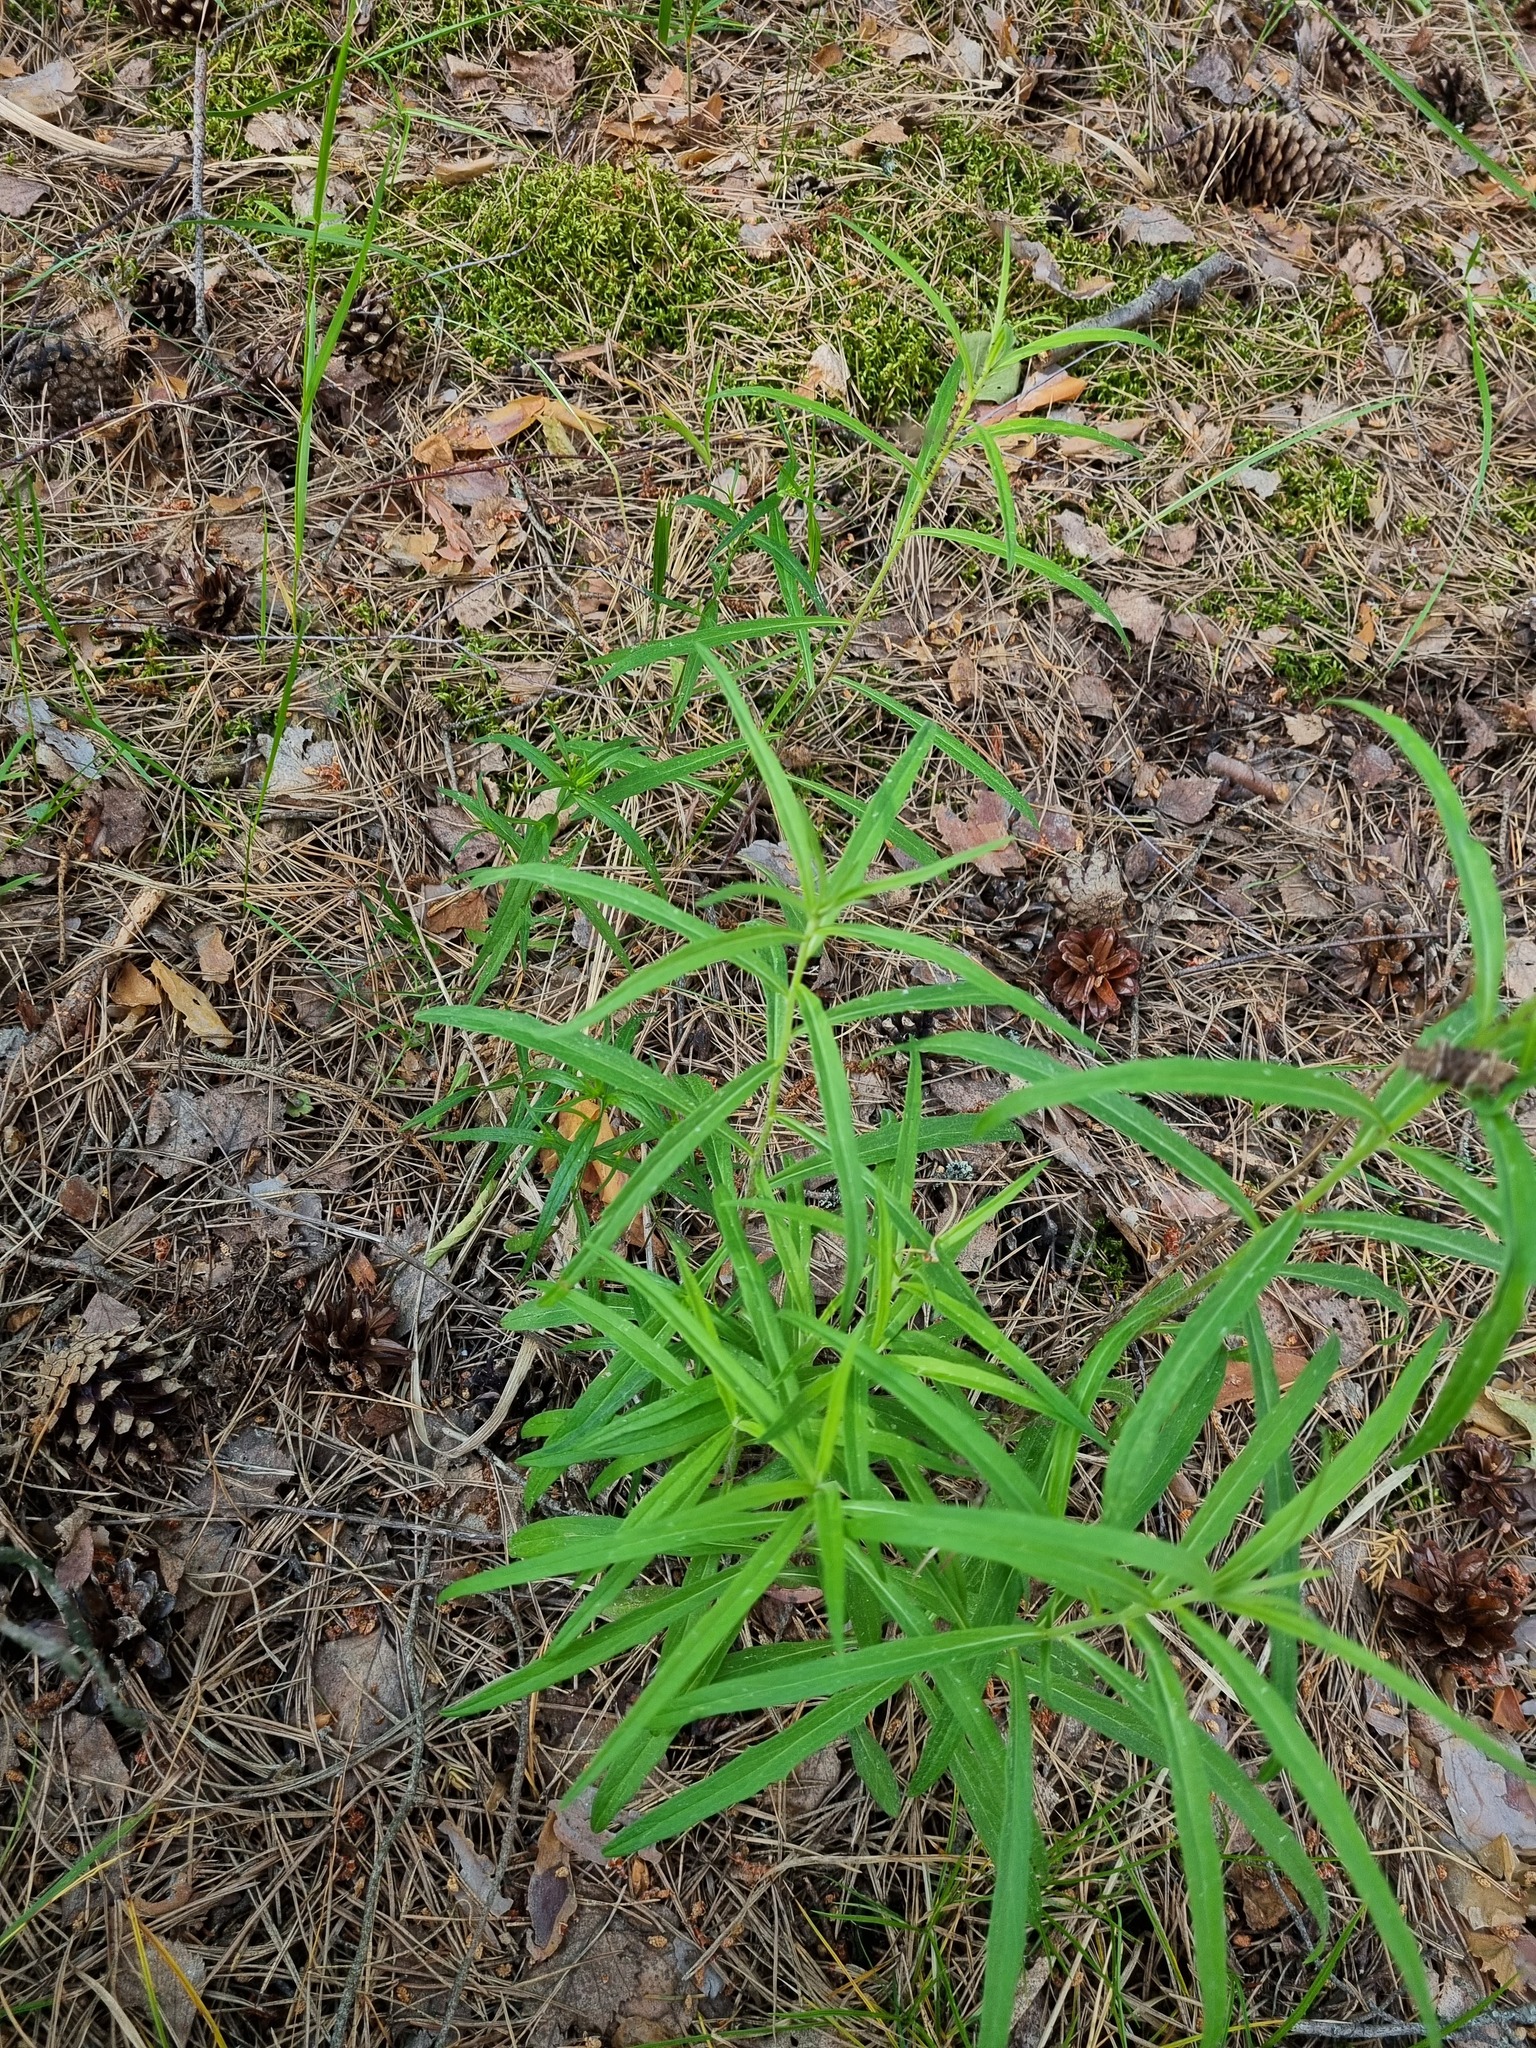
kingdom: Plantae
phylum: Tracheophyta
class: Magnoliopsida
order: Asterales
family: Asteraceae
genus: Hieracium
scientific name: Hieracium umbellatum
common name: Northern hawkweed
